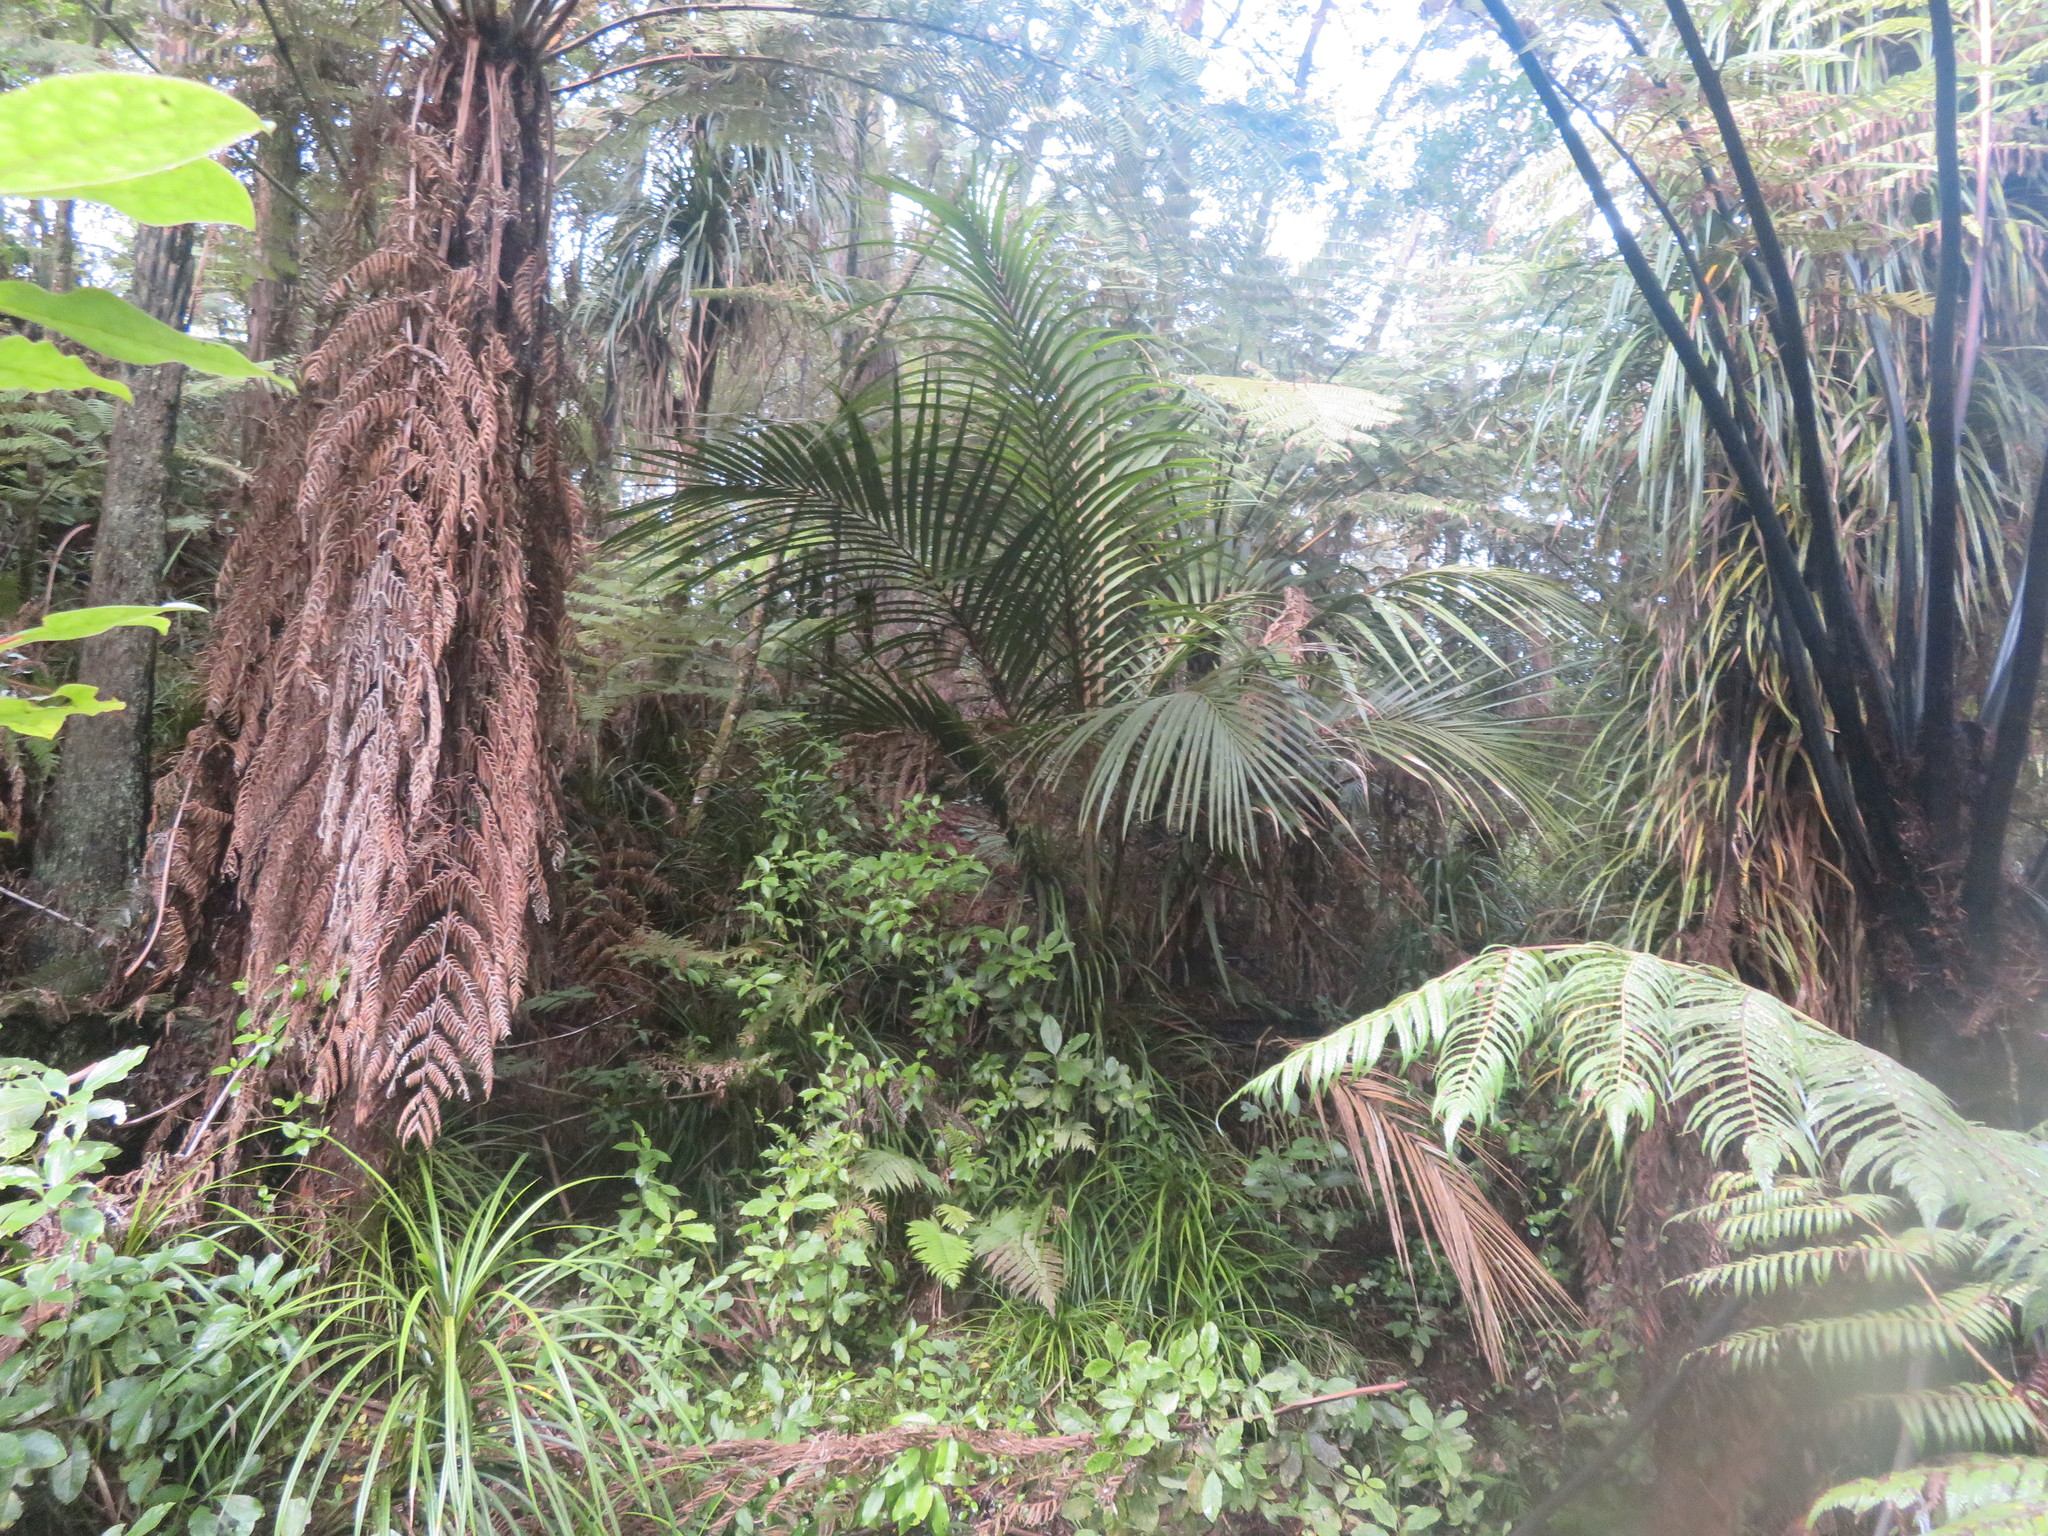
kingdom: Plantae
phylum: Tracheophyta
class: Liliopsida
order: Arecales
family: Arecaceae
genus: Rhopalostylis
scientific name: Rhopalostylis sapida
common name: Feather-duster palm
